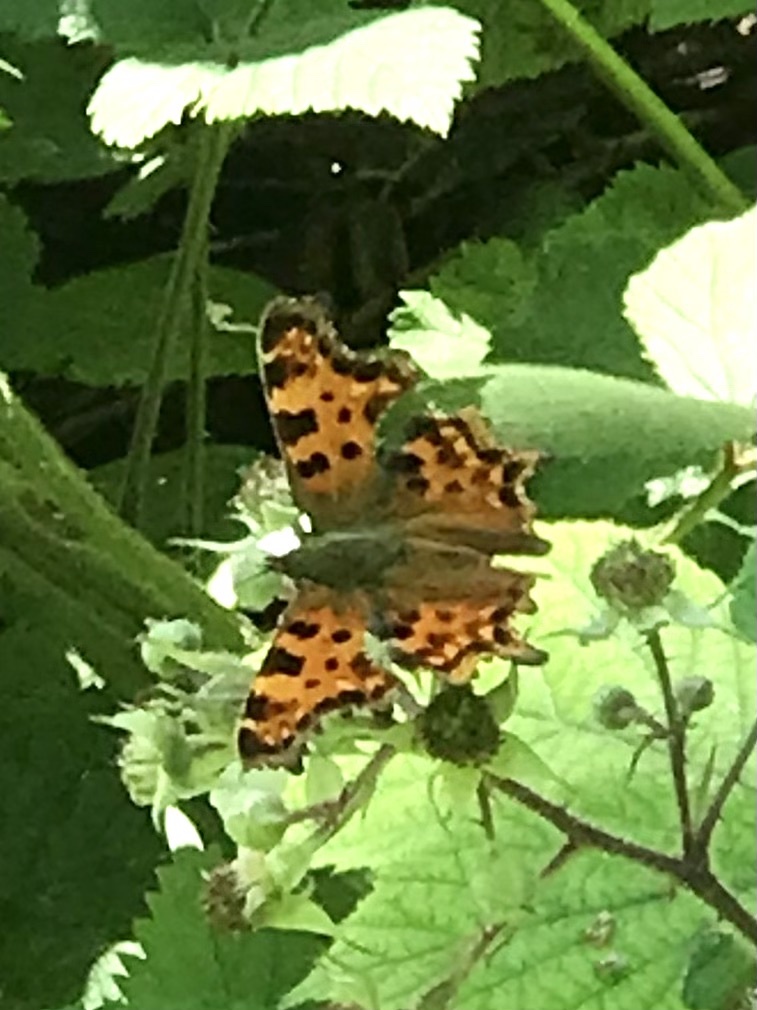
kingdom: Animalia
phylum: Arthropoda
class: Insecta
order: Lepidoptera
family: Nymphalidae
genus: Polygonia
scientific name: Polygonia c-album
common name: Comma
